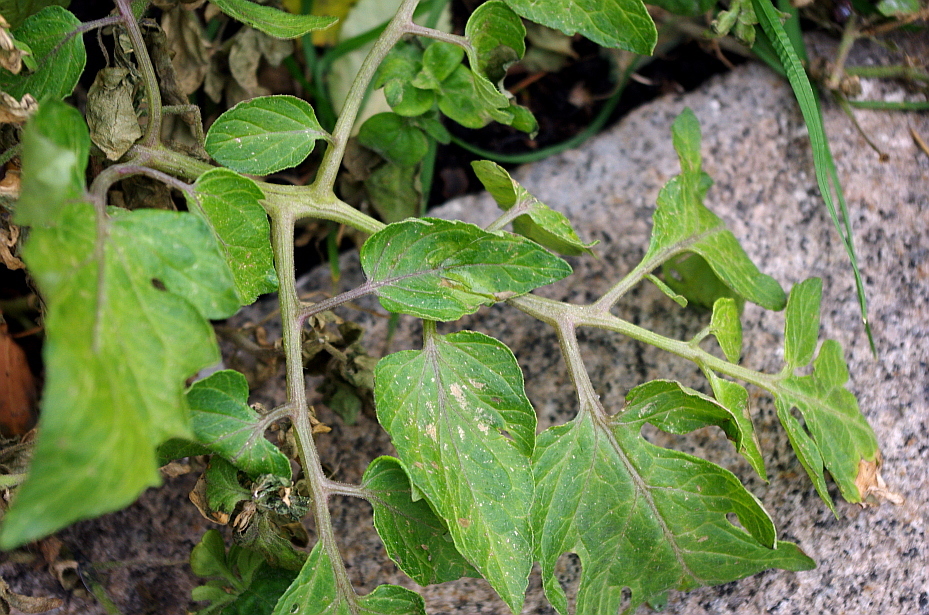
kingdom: Plantae
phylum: Tracheophyta
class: Magnoliopsida
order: Solanales
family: Solanaceae
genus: Solanum
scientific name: Solanum lycopersicum
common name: Garden tomato
